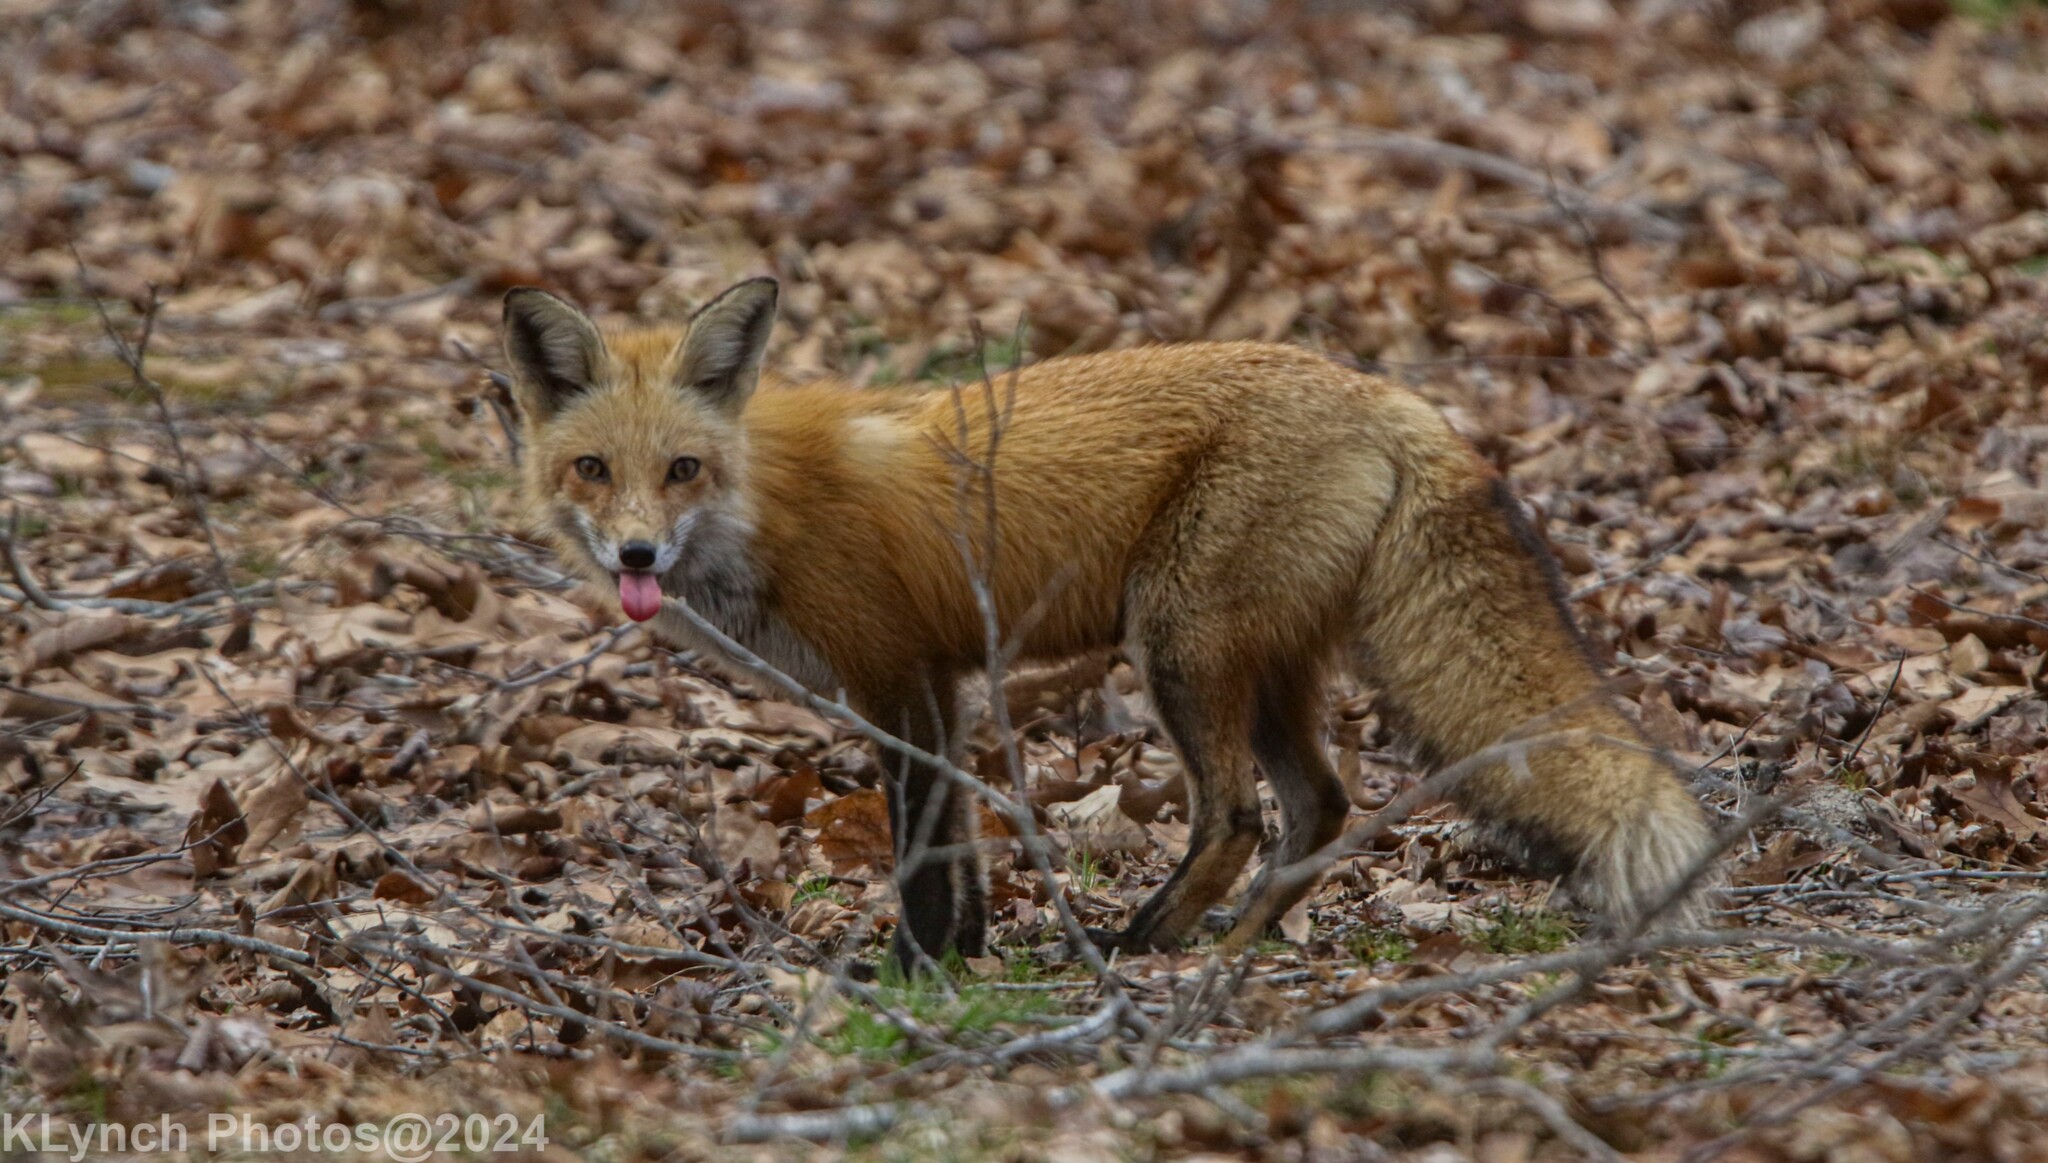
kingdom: Animalia
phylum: Chordata
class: Mammalia
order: Carnivora
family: Canidae
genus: Vulpes
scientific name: Vulpes vulpes
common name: Red fox
